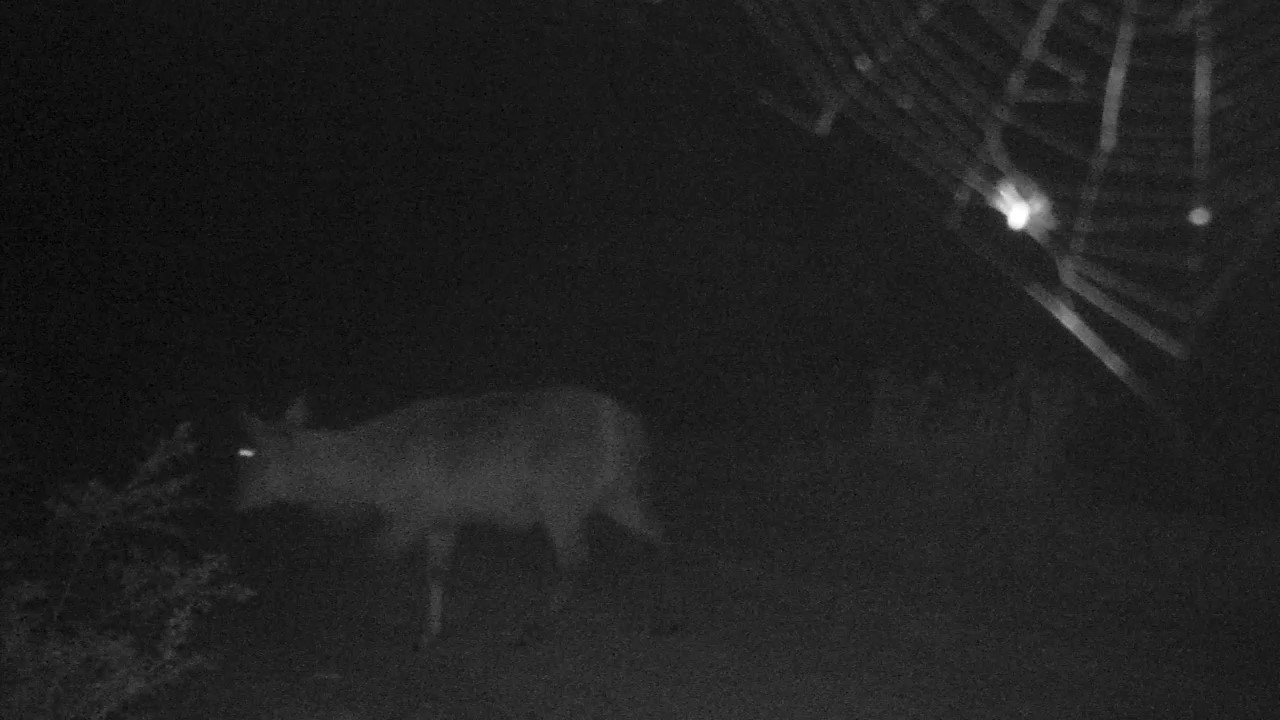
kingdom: Animalia
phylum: Chordata
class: Mammalia
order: Artiodactyla
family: Bovidae
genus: Kobus
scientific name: Kobus ellipsiprymnus
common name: Waterbuck
